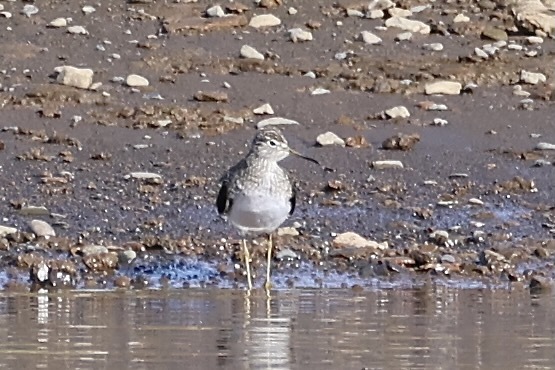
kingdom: Animalia
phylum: Chordata
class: Aves
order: Charadriiformes
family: Scolopacidae
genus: Tringa
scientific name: Tringa flavipes
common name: Lesser yellowlegs
